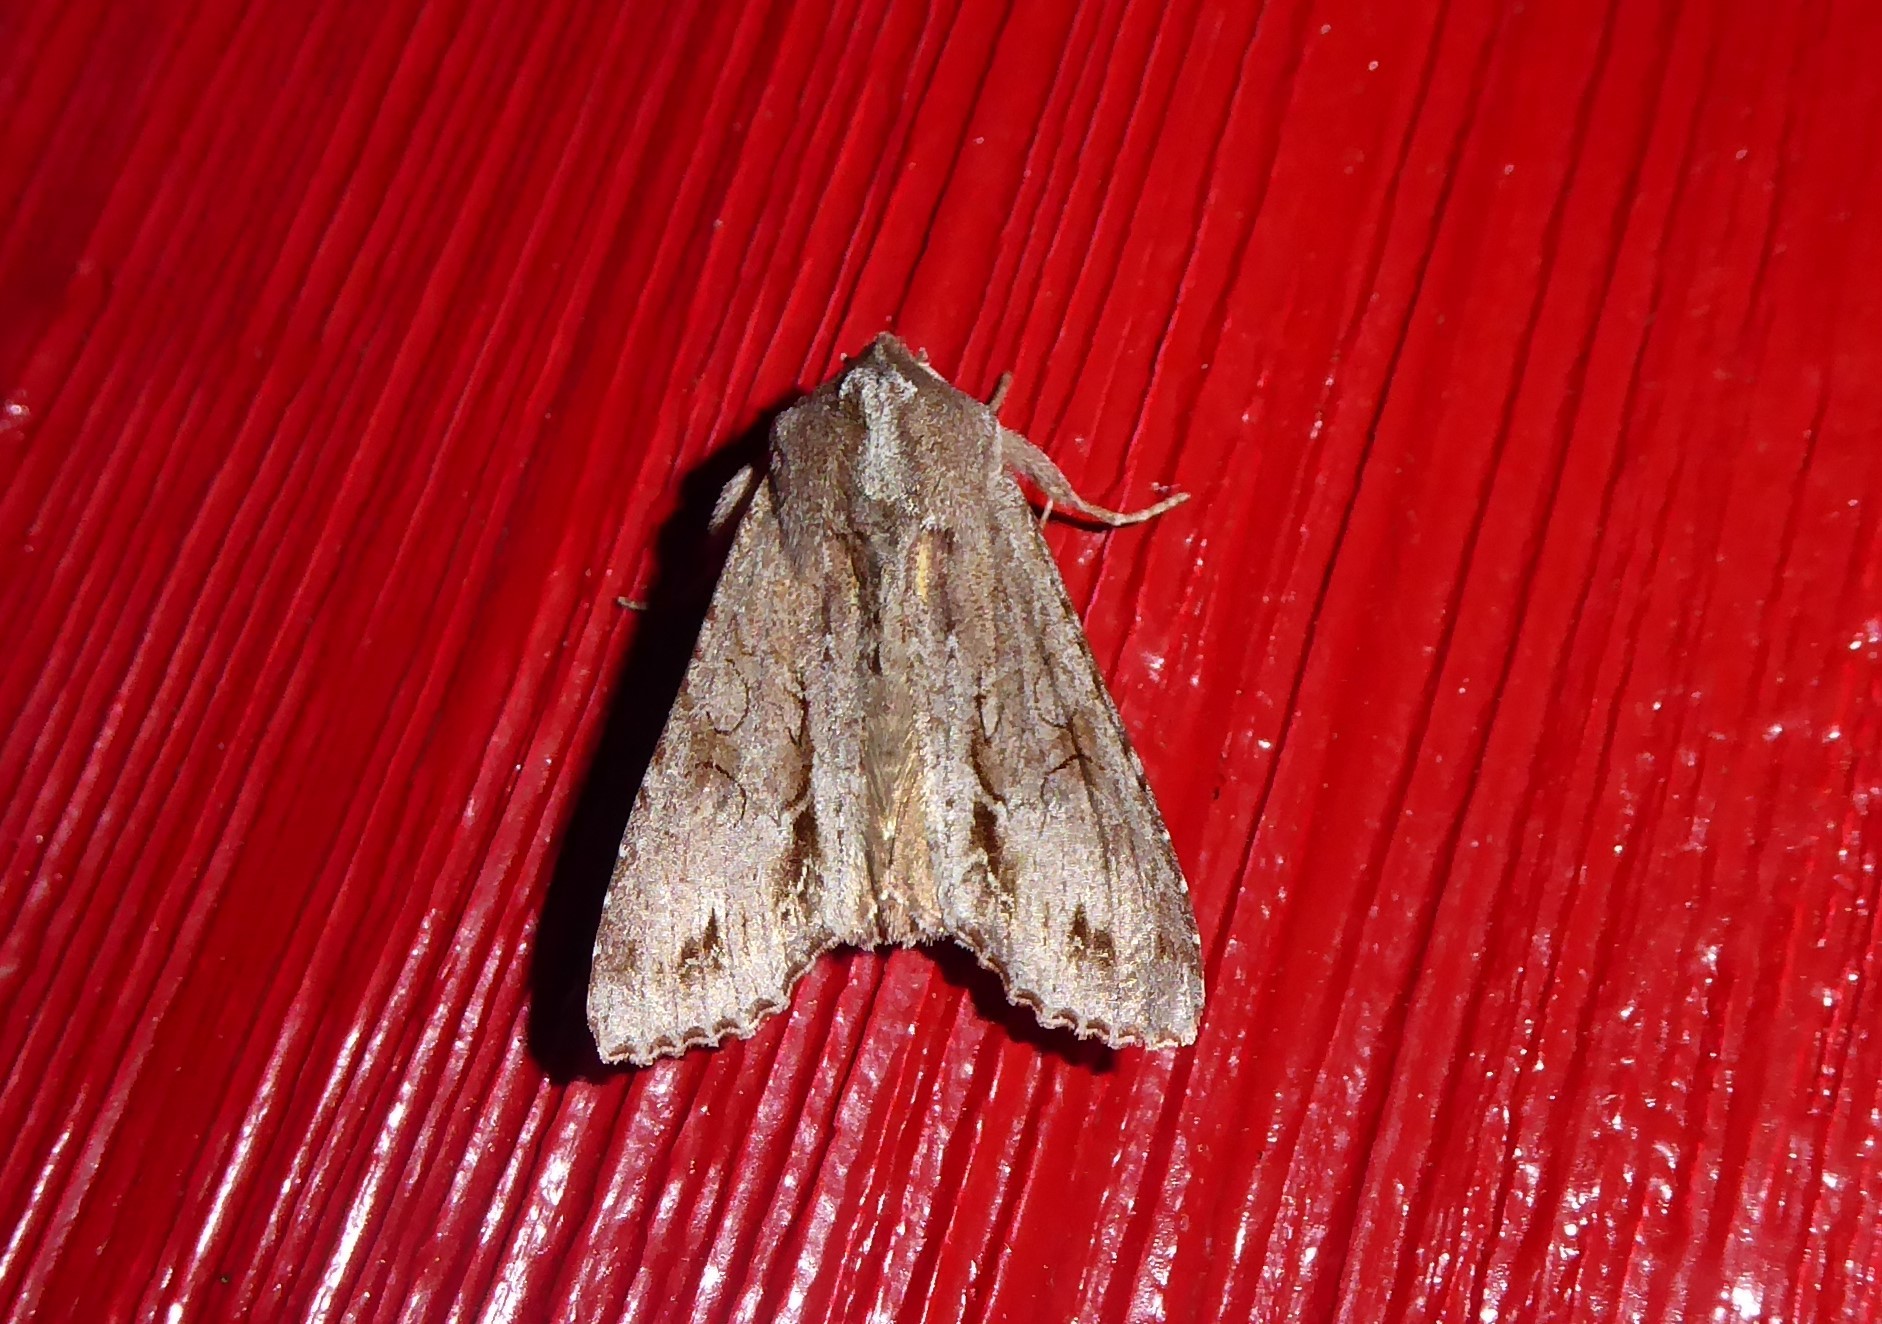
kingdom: Animalia
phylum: Arthropoda
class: Insecta
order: Lepidoptera
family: Noctuidae
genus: Ichneutica
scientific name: Ichneutica
